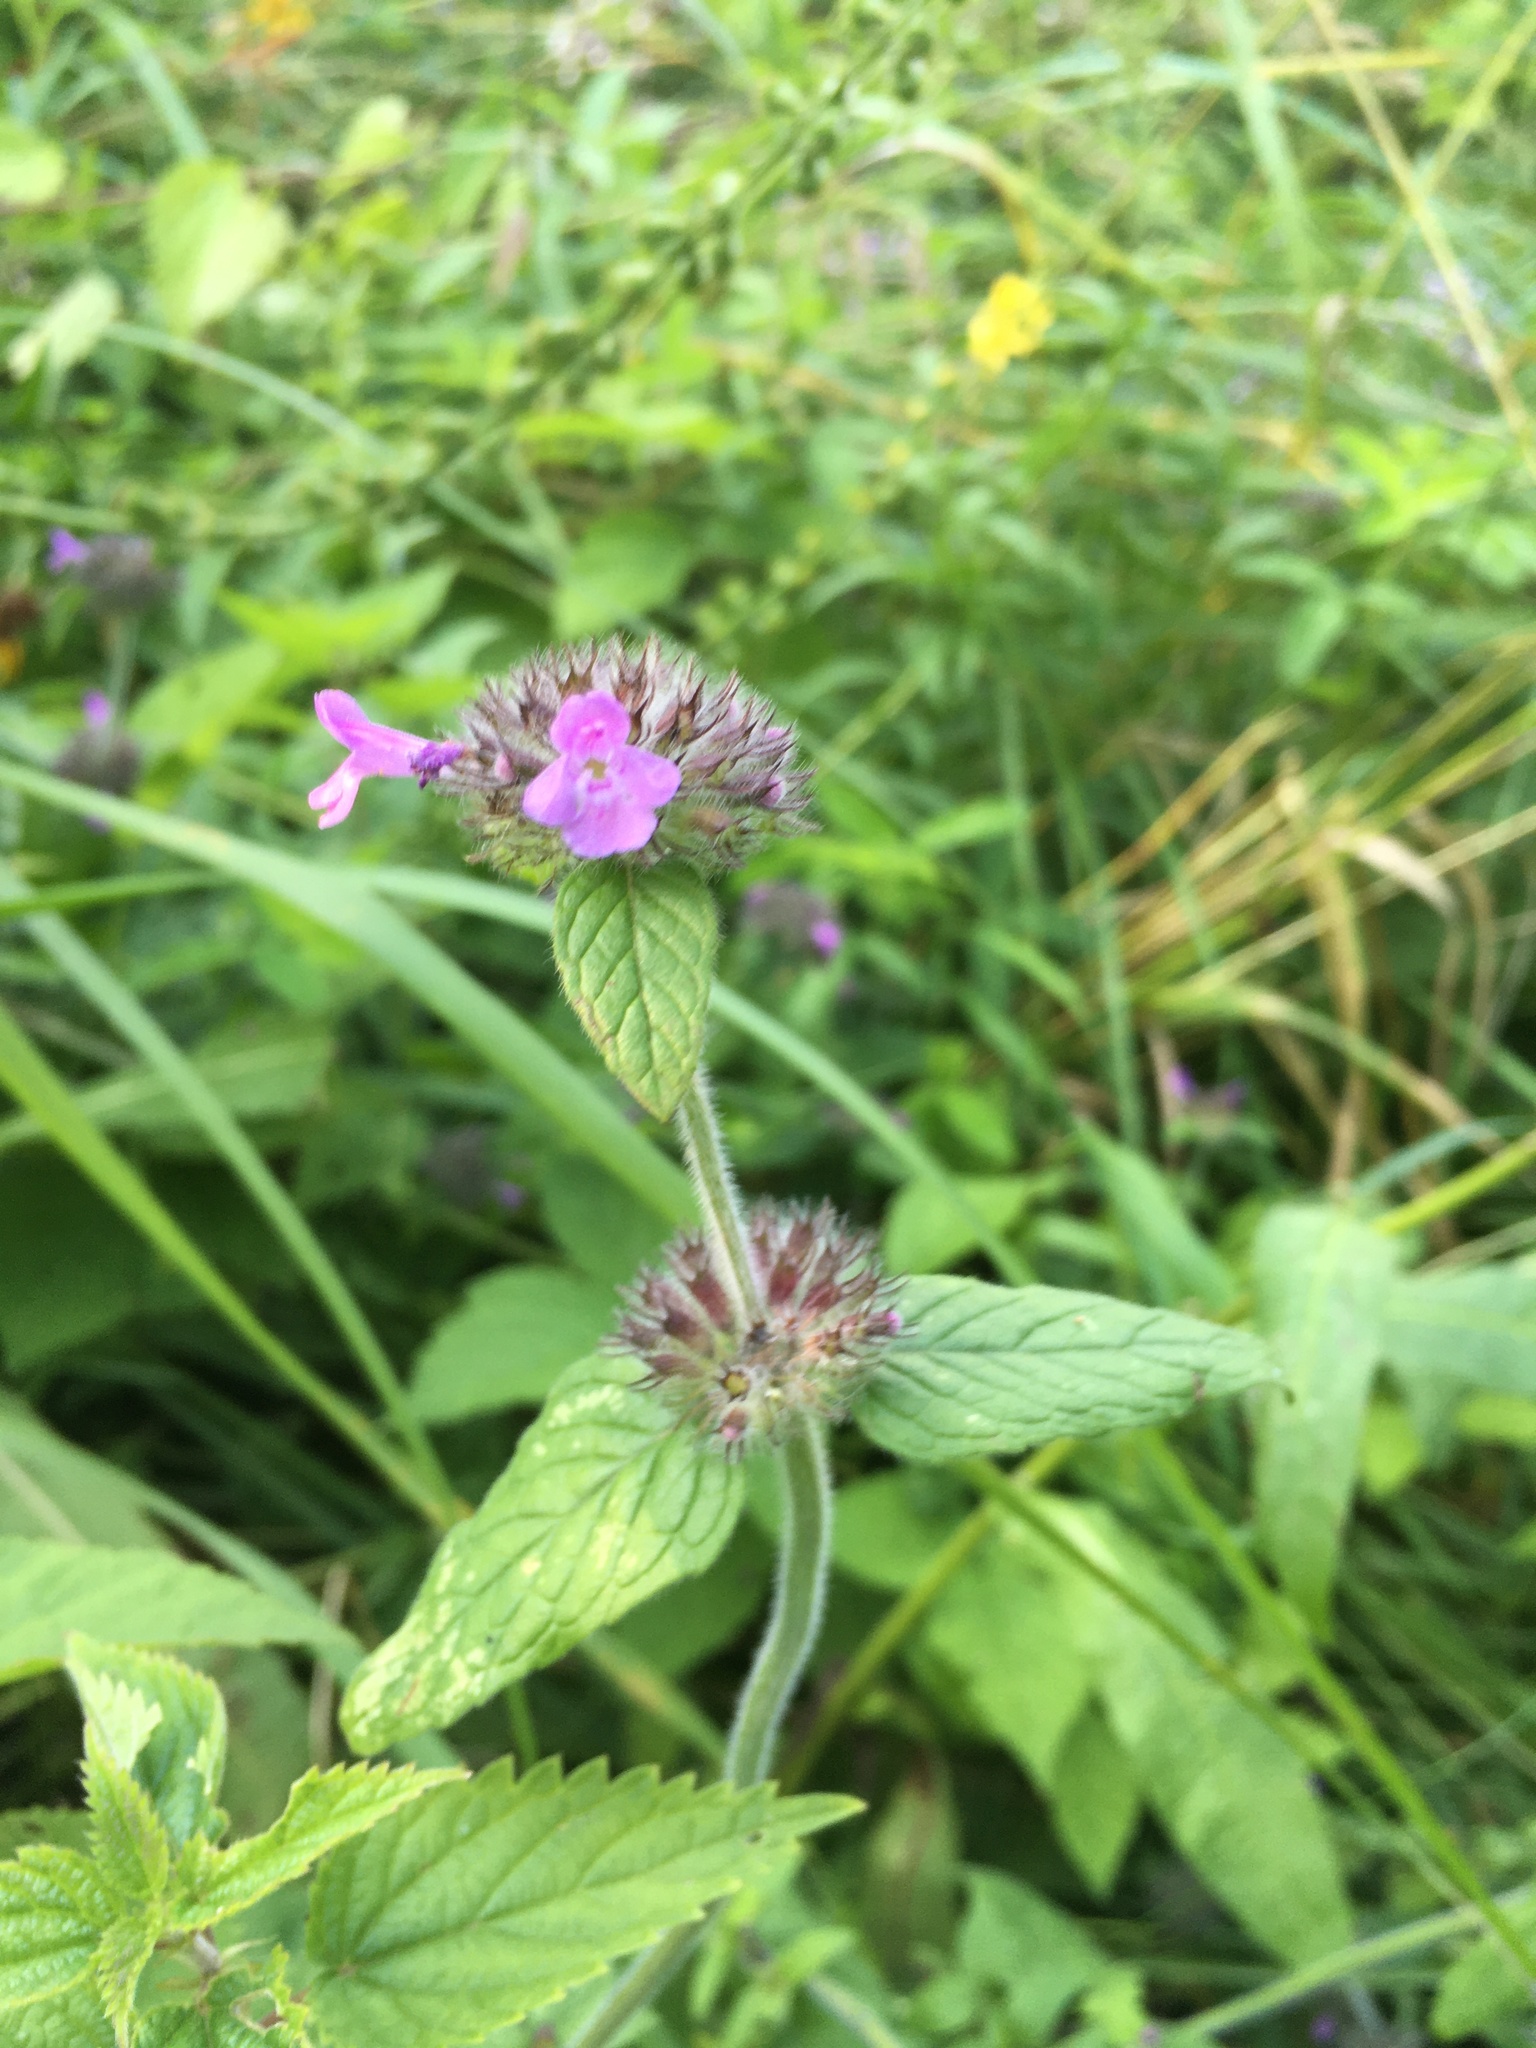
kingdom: Plantae
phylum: Tracheophyta
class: Magnoliopsida
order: Lamiales
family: Lamiaceae
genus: Clinopodium
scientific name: Clinopodium vulgare
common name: Wild basil
